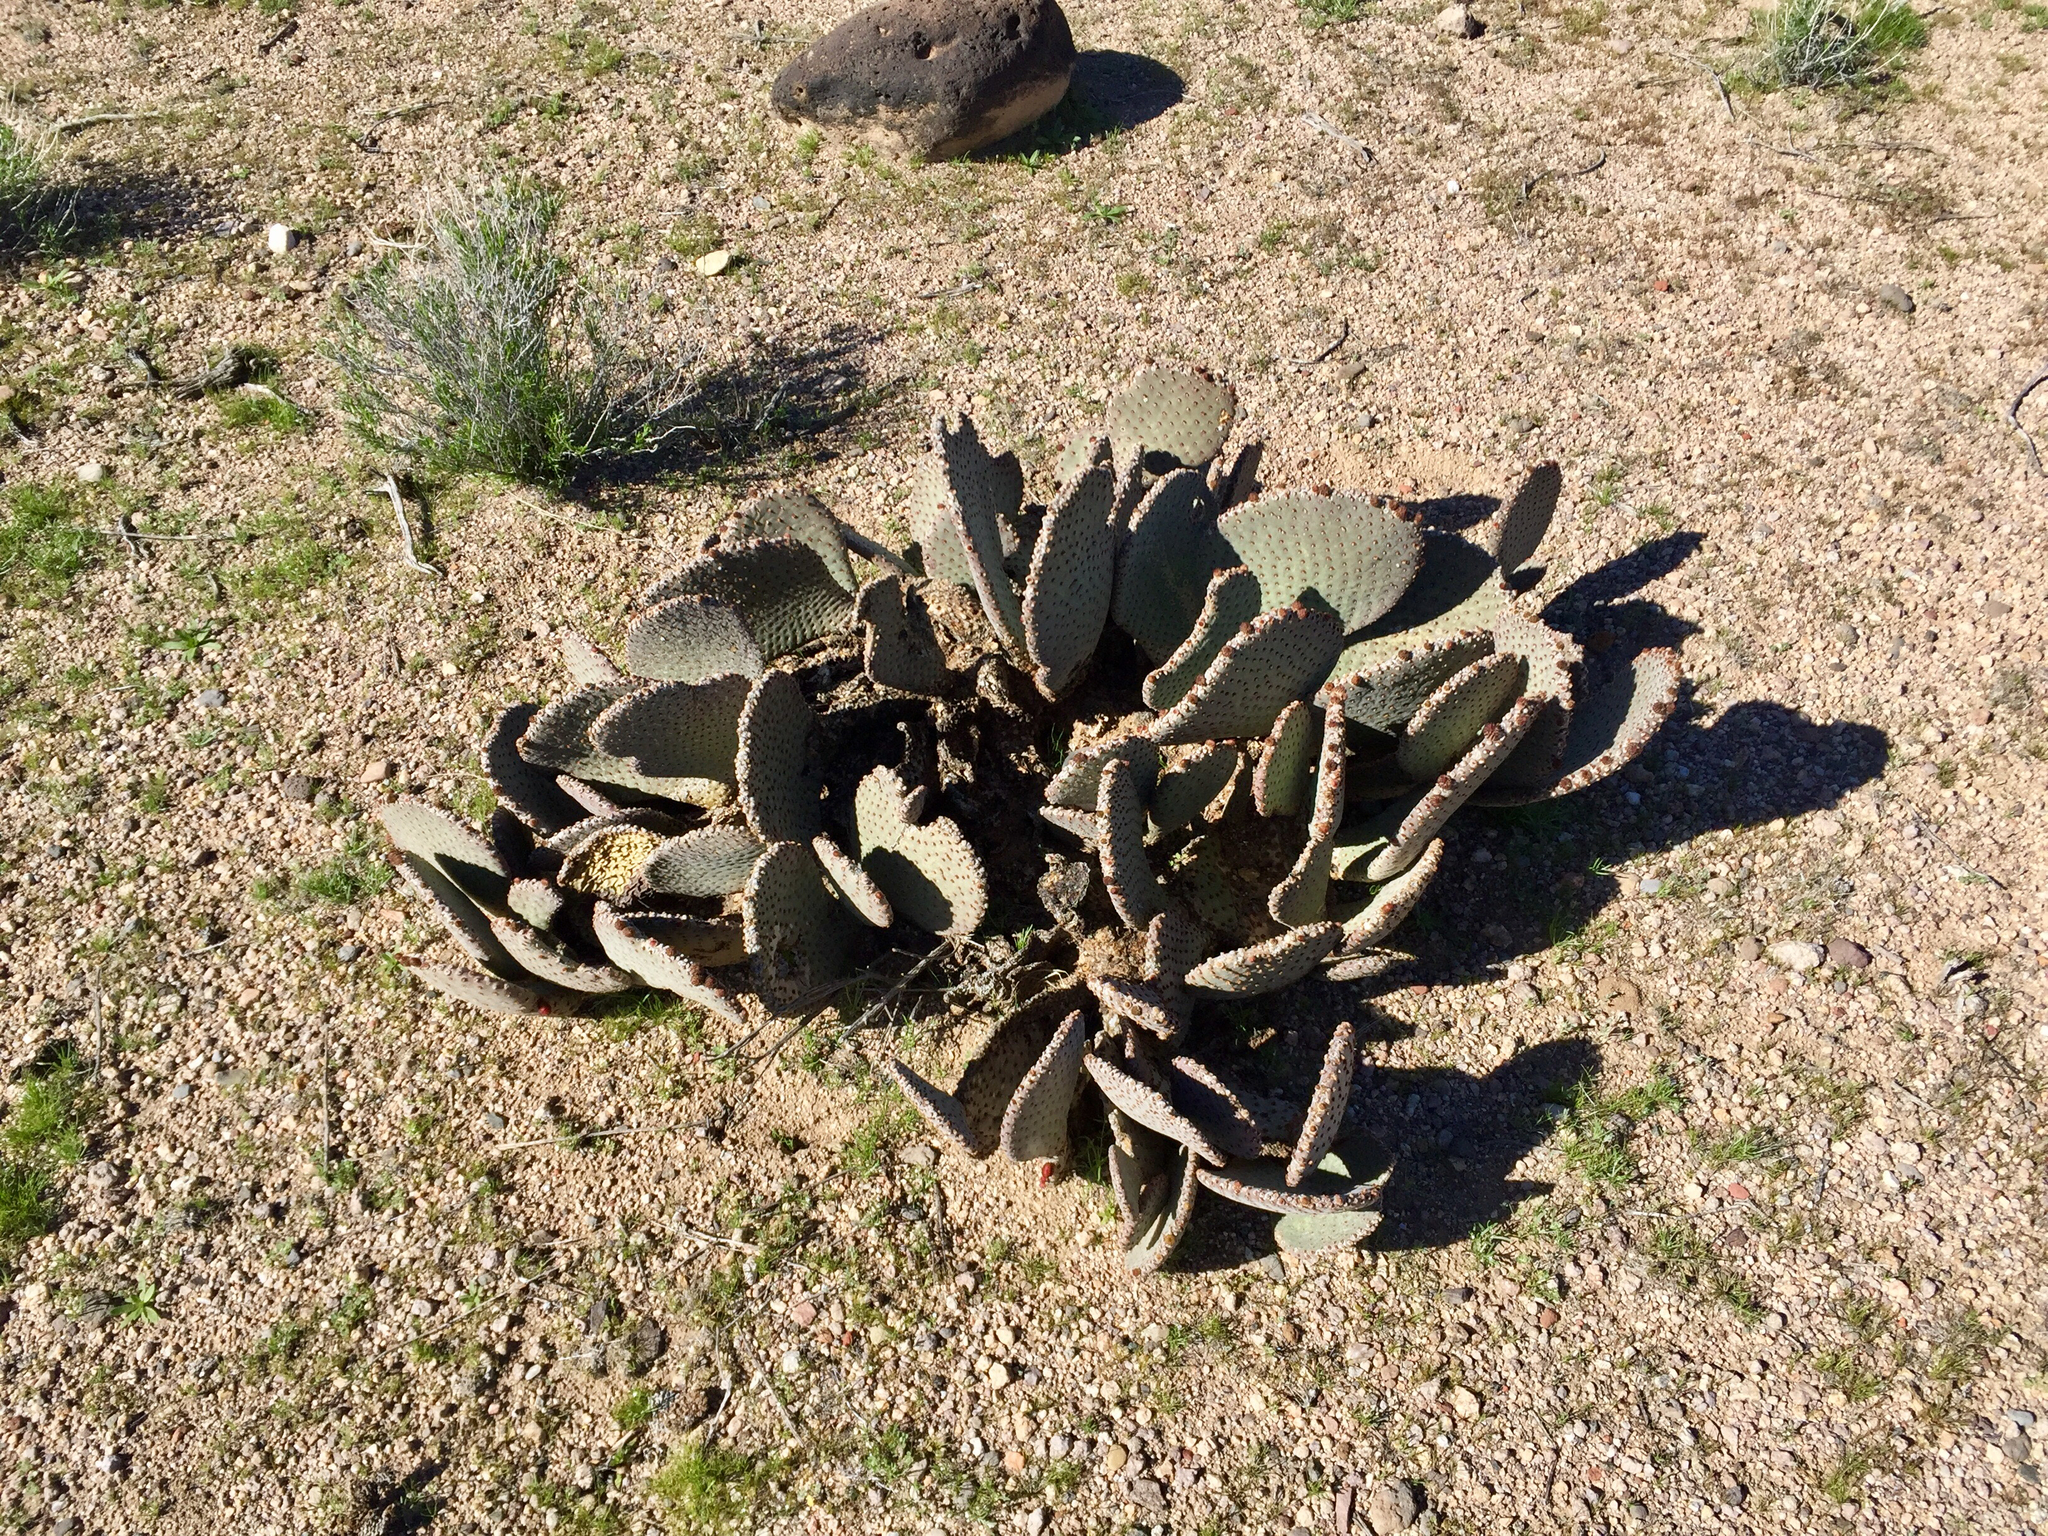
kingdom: Plantae
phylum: Tracheophyta
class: Magnoliopsida
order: Caryophyllales
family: Cactaceae
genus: Opuntia
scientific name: Opuntia basilaris
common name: Beavertail prickly-pear
